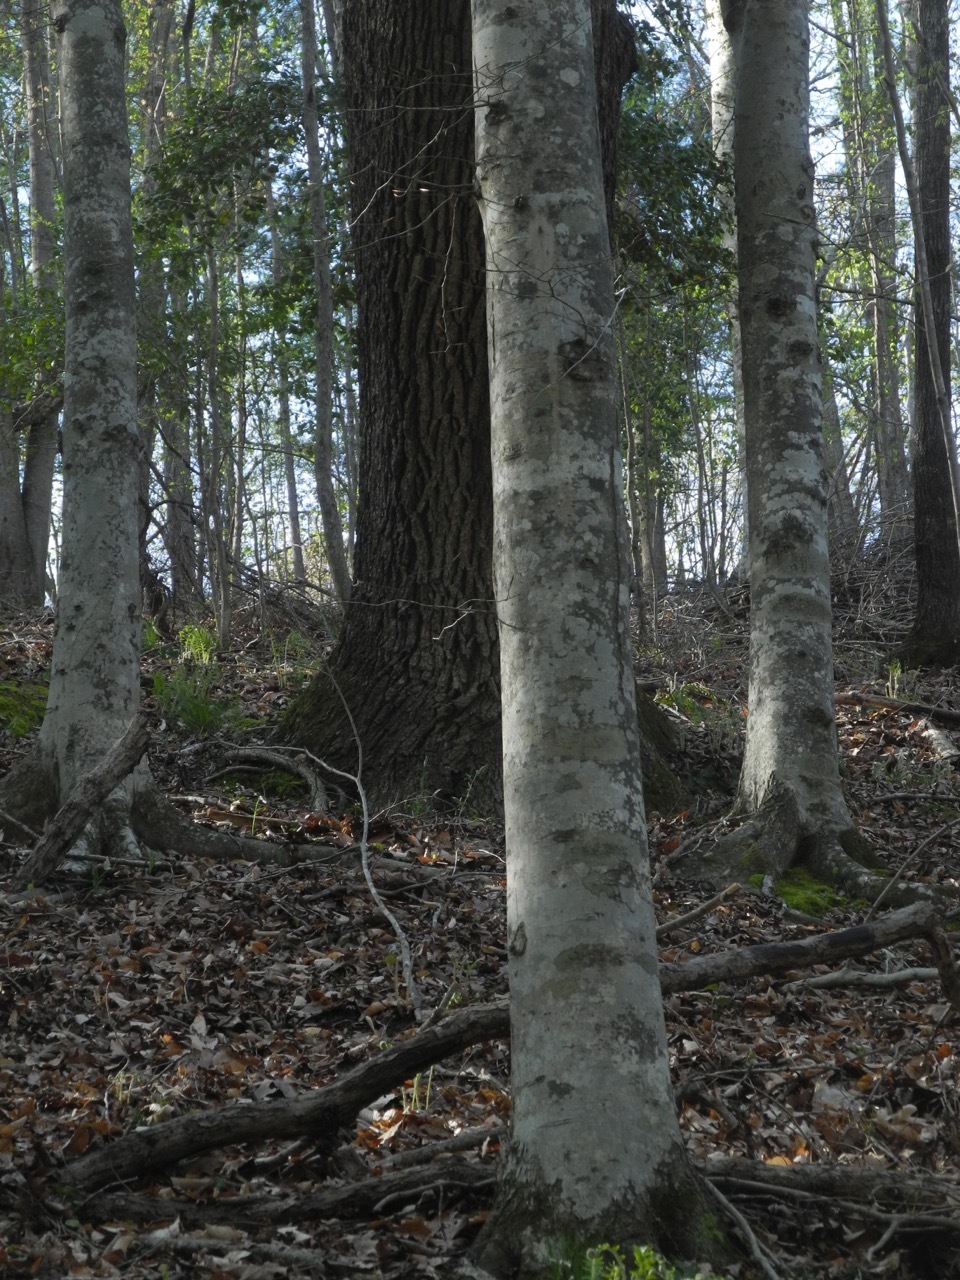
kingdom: Plantae
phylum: Tracheophyta
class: Magnoliopsida
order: Fagales
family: Fagaceae
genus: Fagus
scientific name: Fagus grandifolia
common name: American beech
